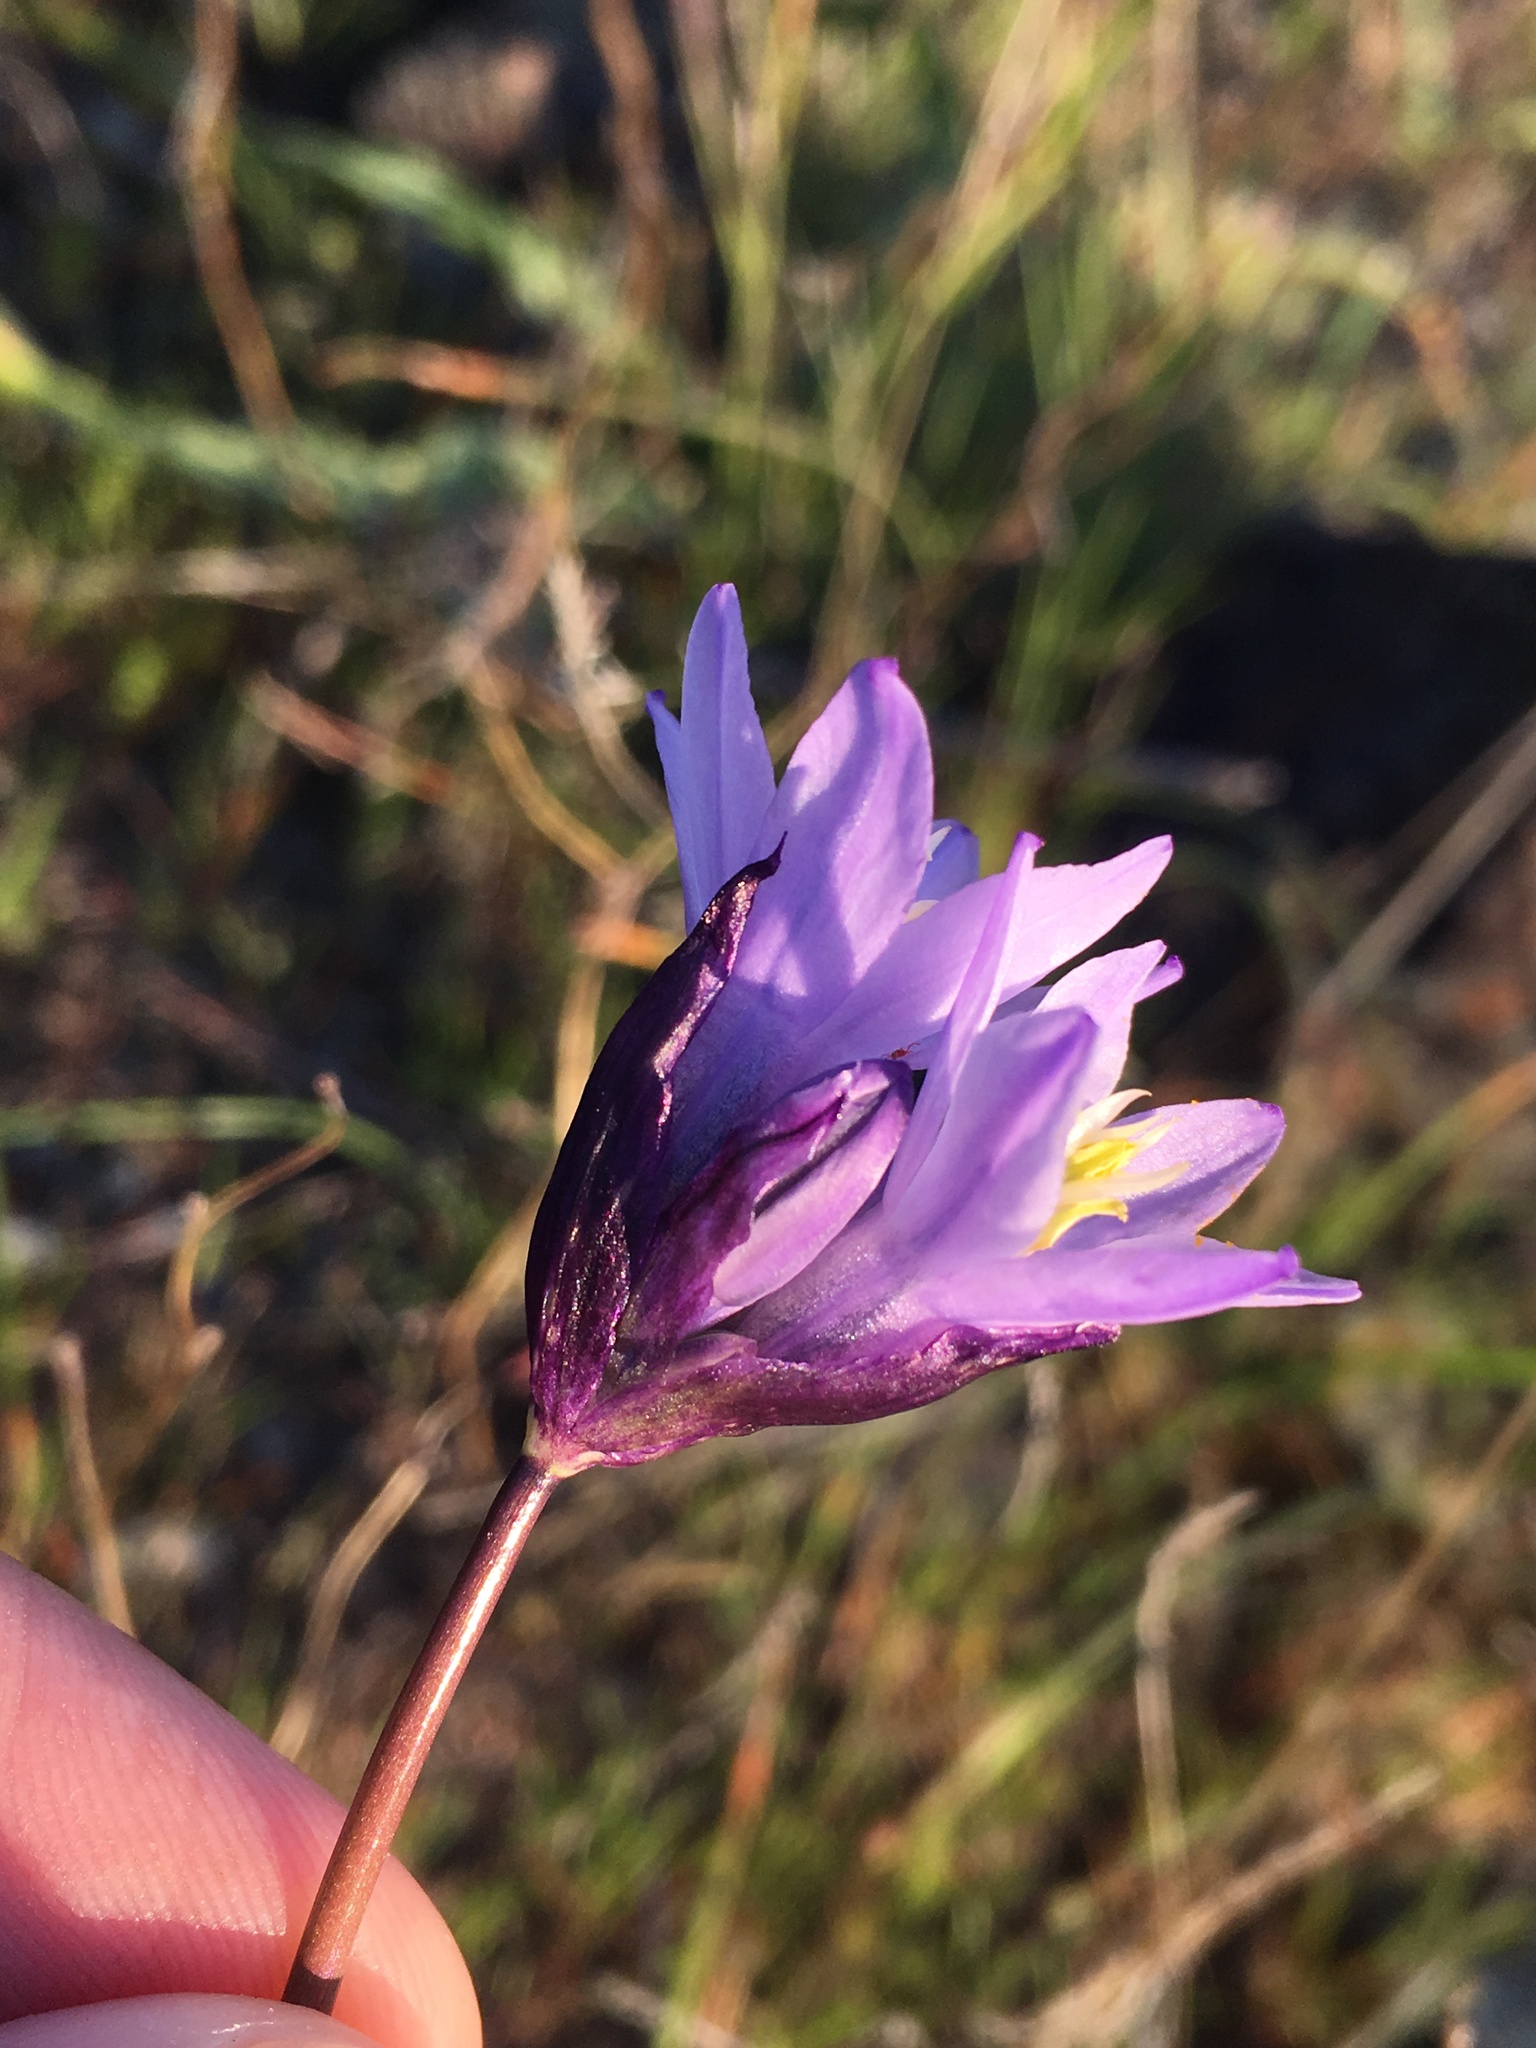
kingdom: Plantae
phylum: Tracheophyta
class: Liliopsida
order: Asparagales
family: Asparagaceae
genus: Dipterostemon
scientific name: Dipterostemon capitatus
